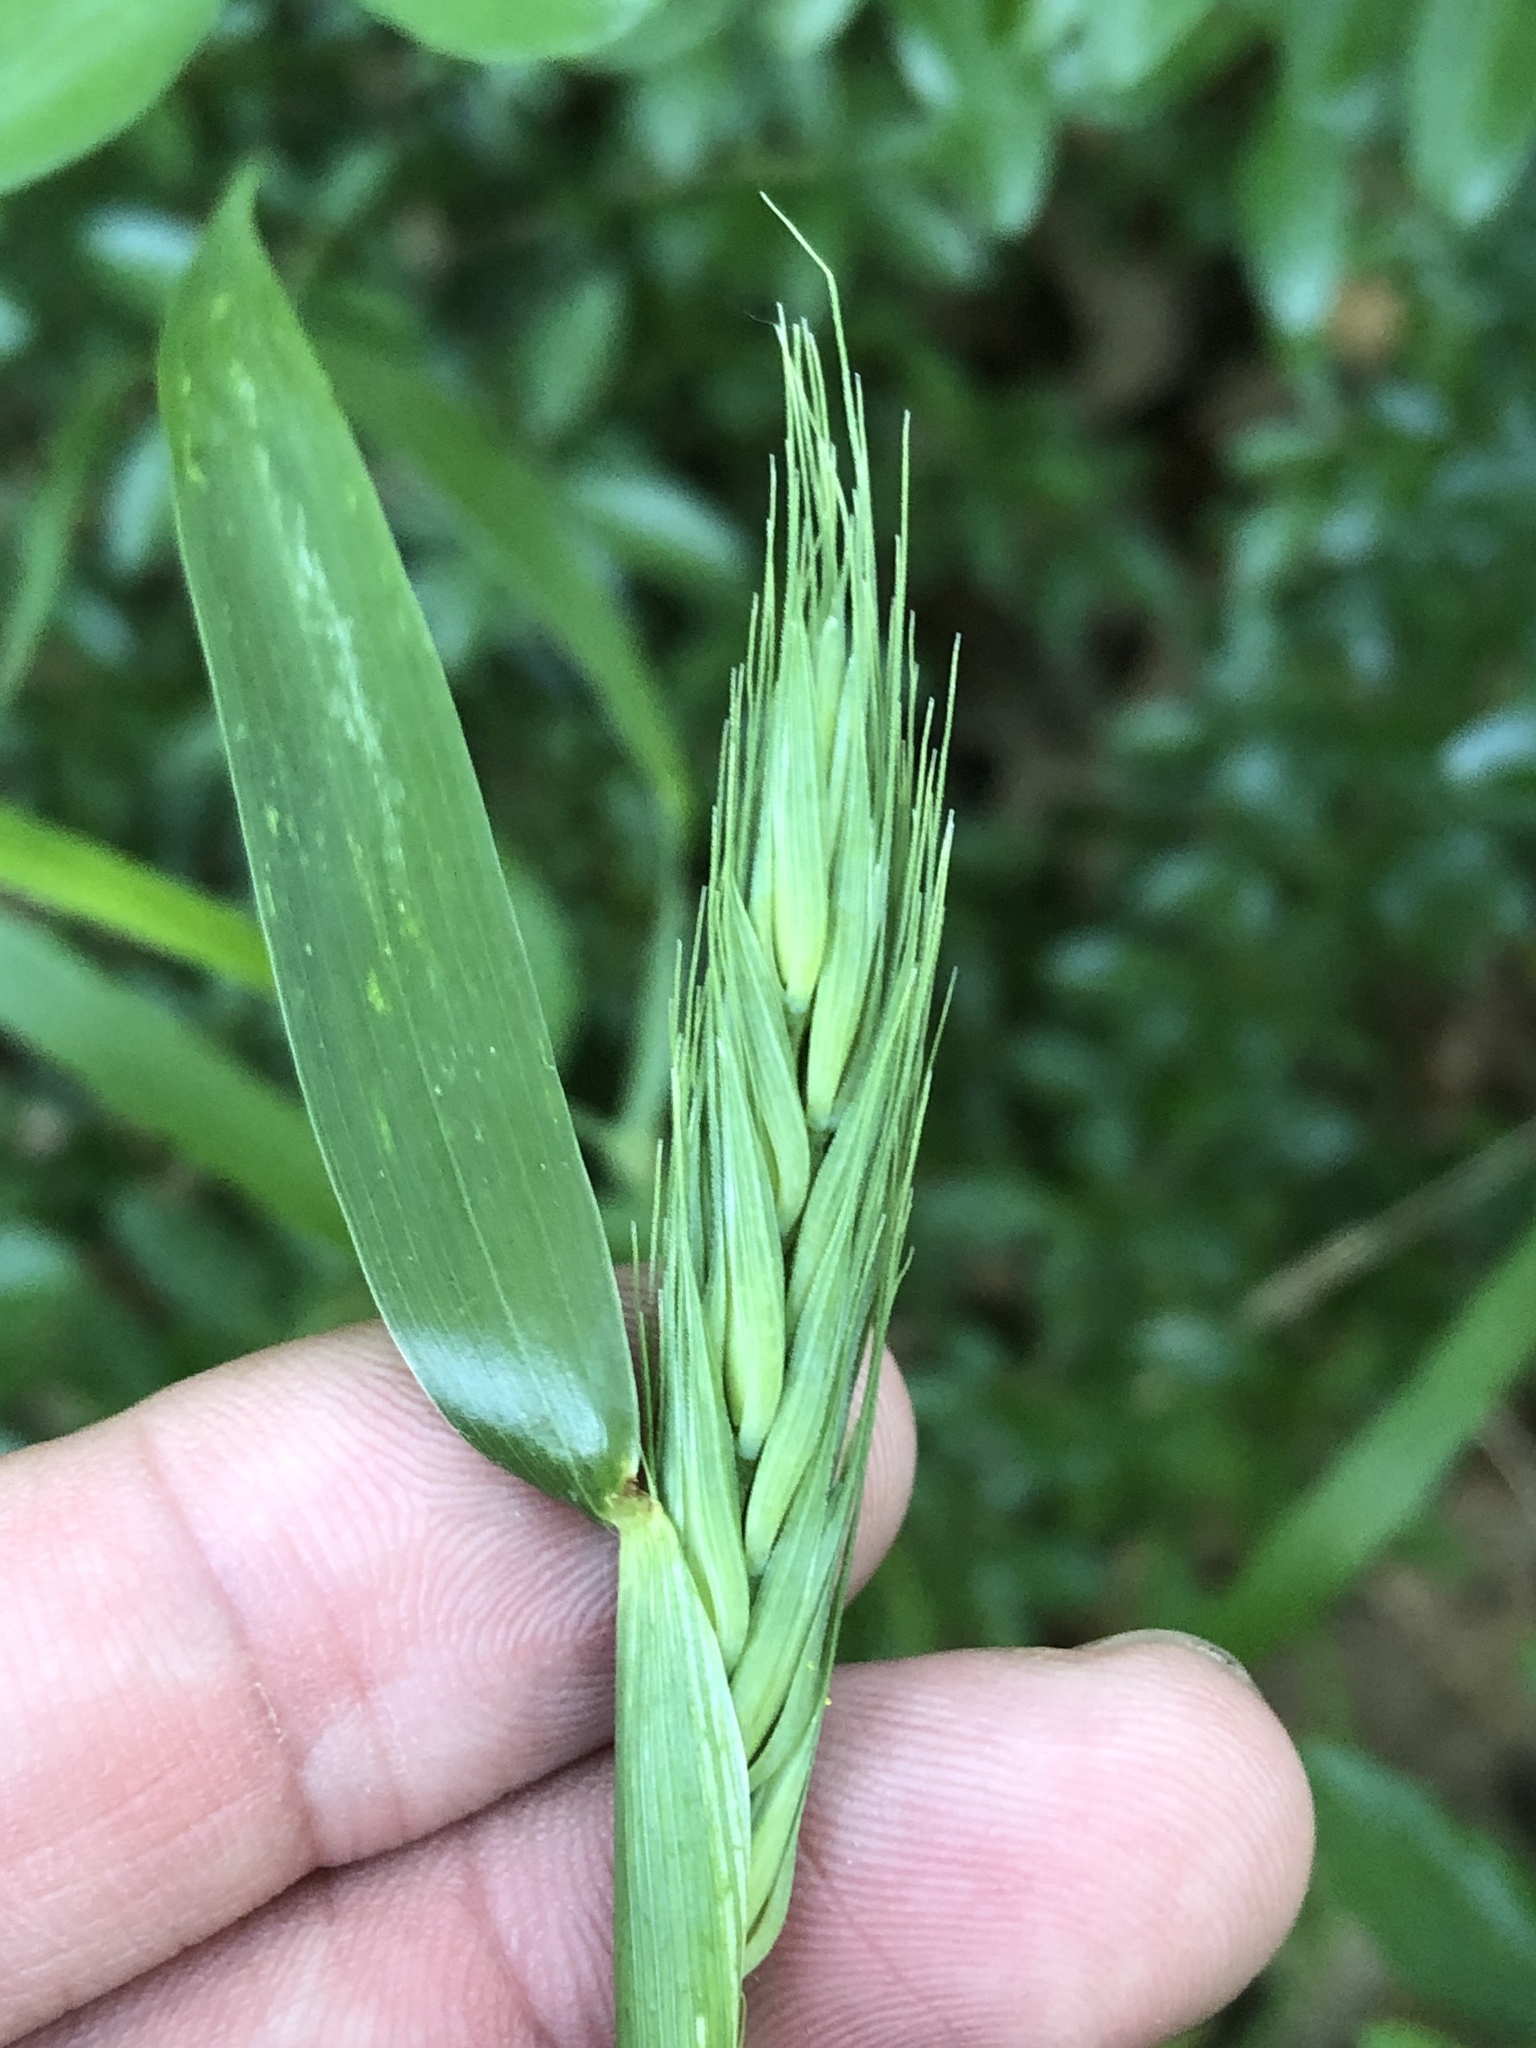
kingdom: Plantae
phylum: Tracheophyta
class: Liliopsida
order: Poales
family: Poaceae
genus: Elymus
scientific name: Elymus virginicus
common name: Common eastern wildrye
